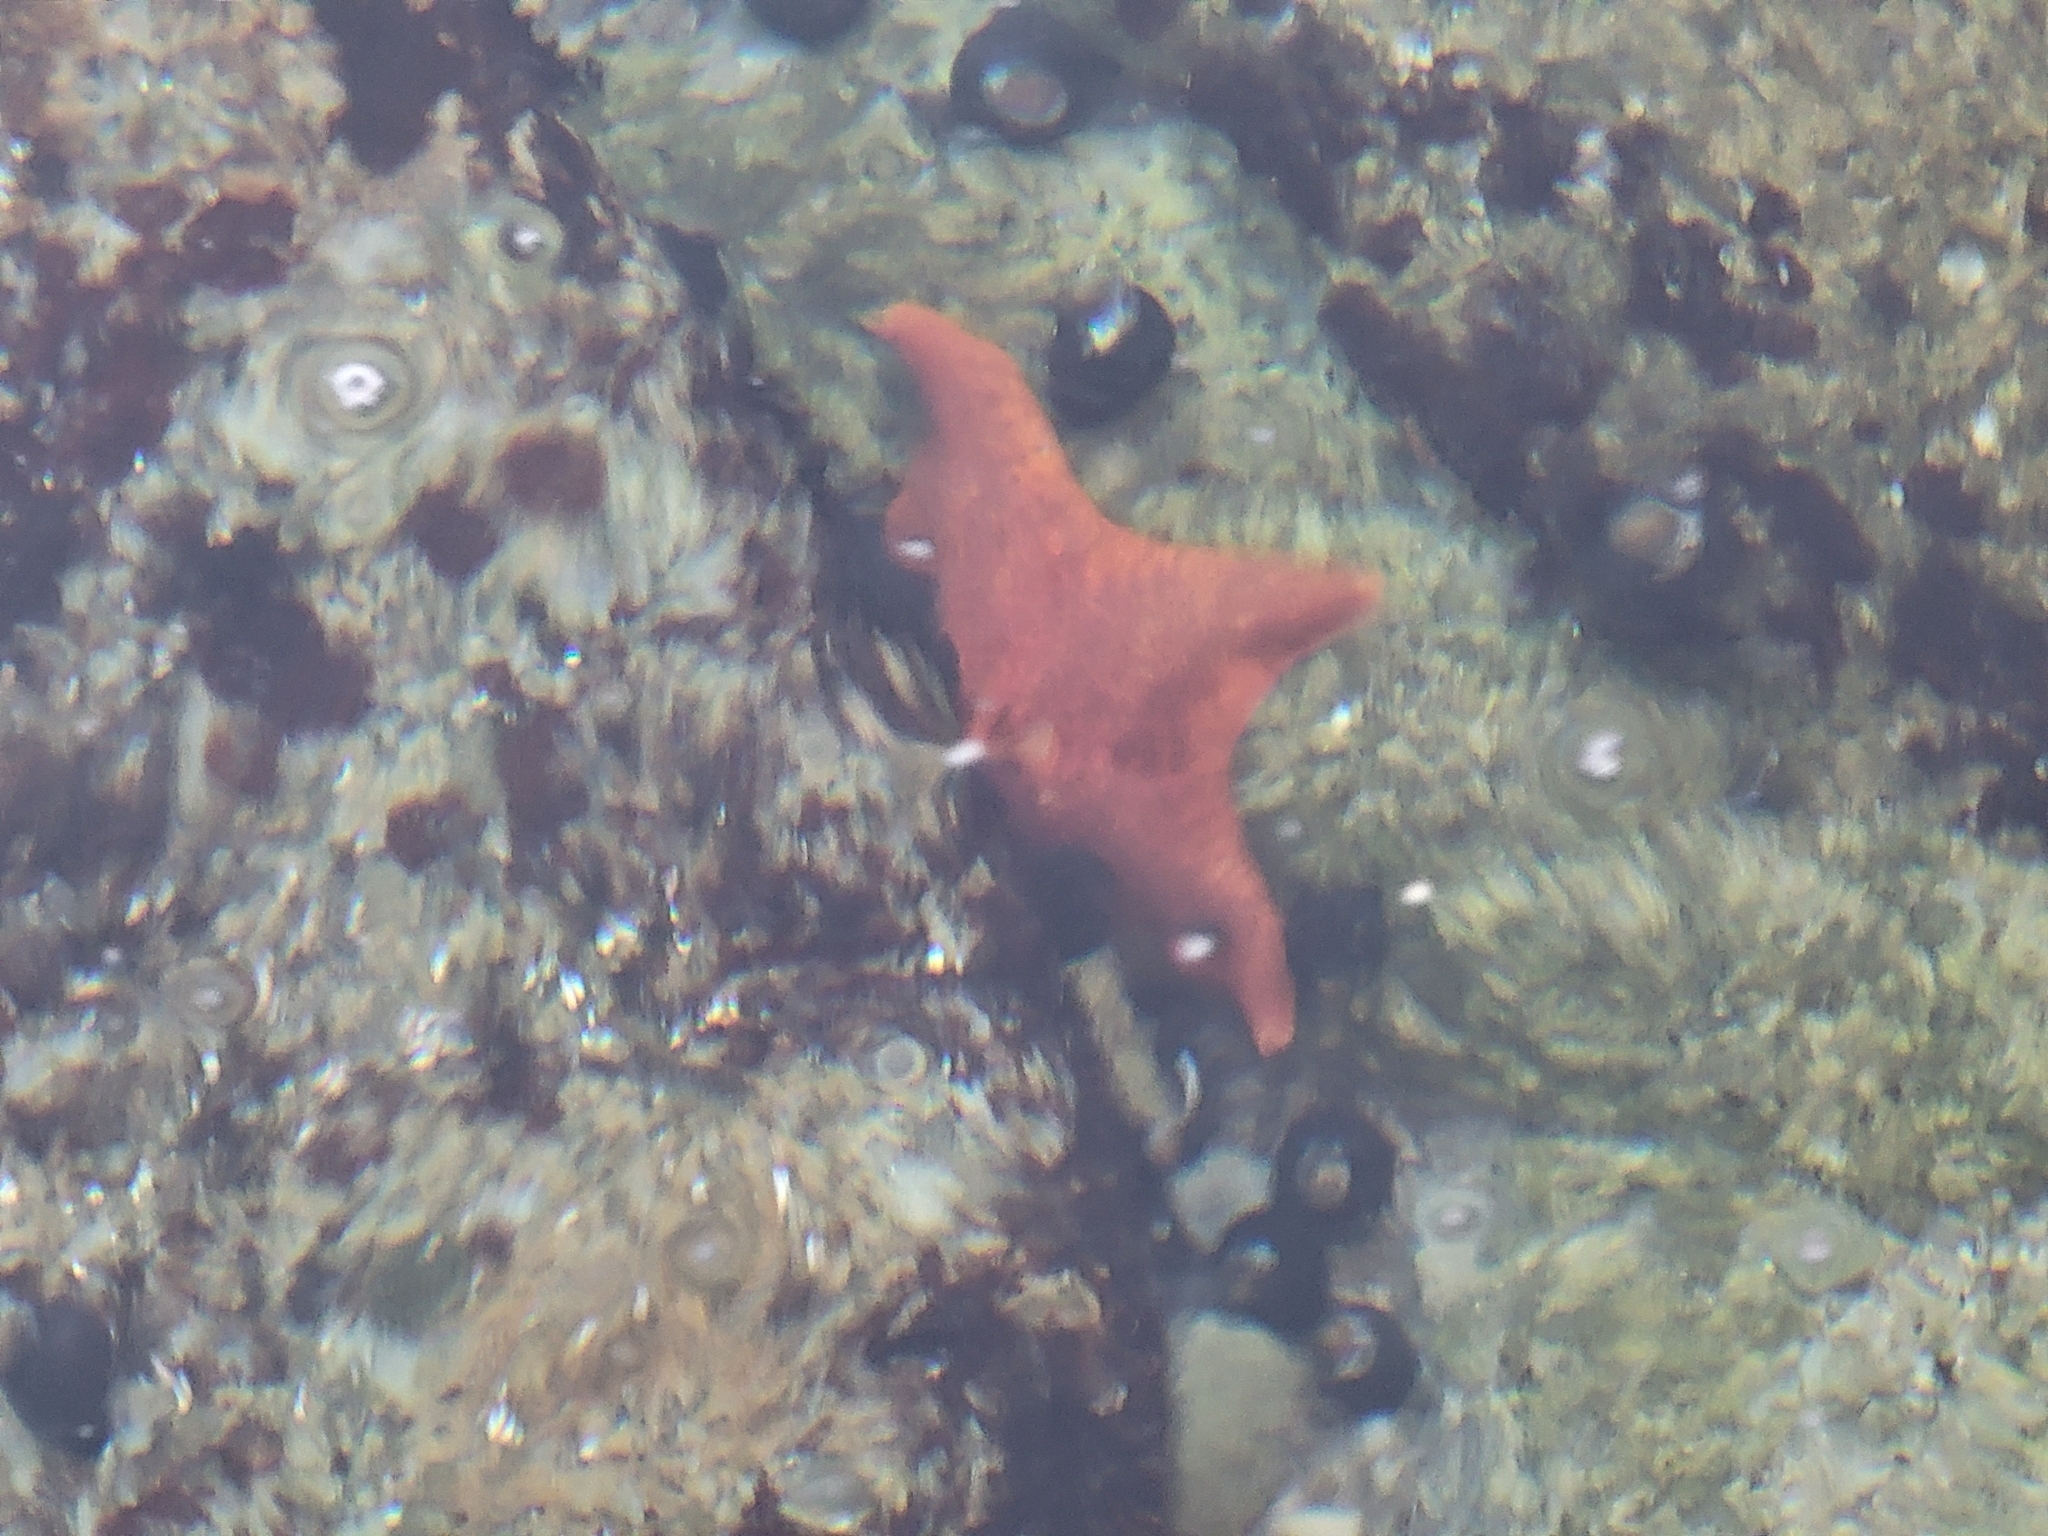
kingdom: Animalia
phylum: Echinodermata
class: Asteroidea
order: Valvatida
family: Asterinidae
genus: Patiria
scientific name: Patiria miniata
